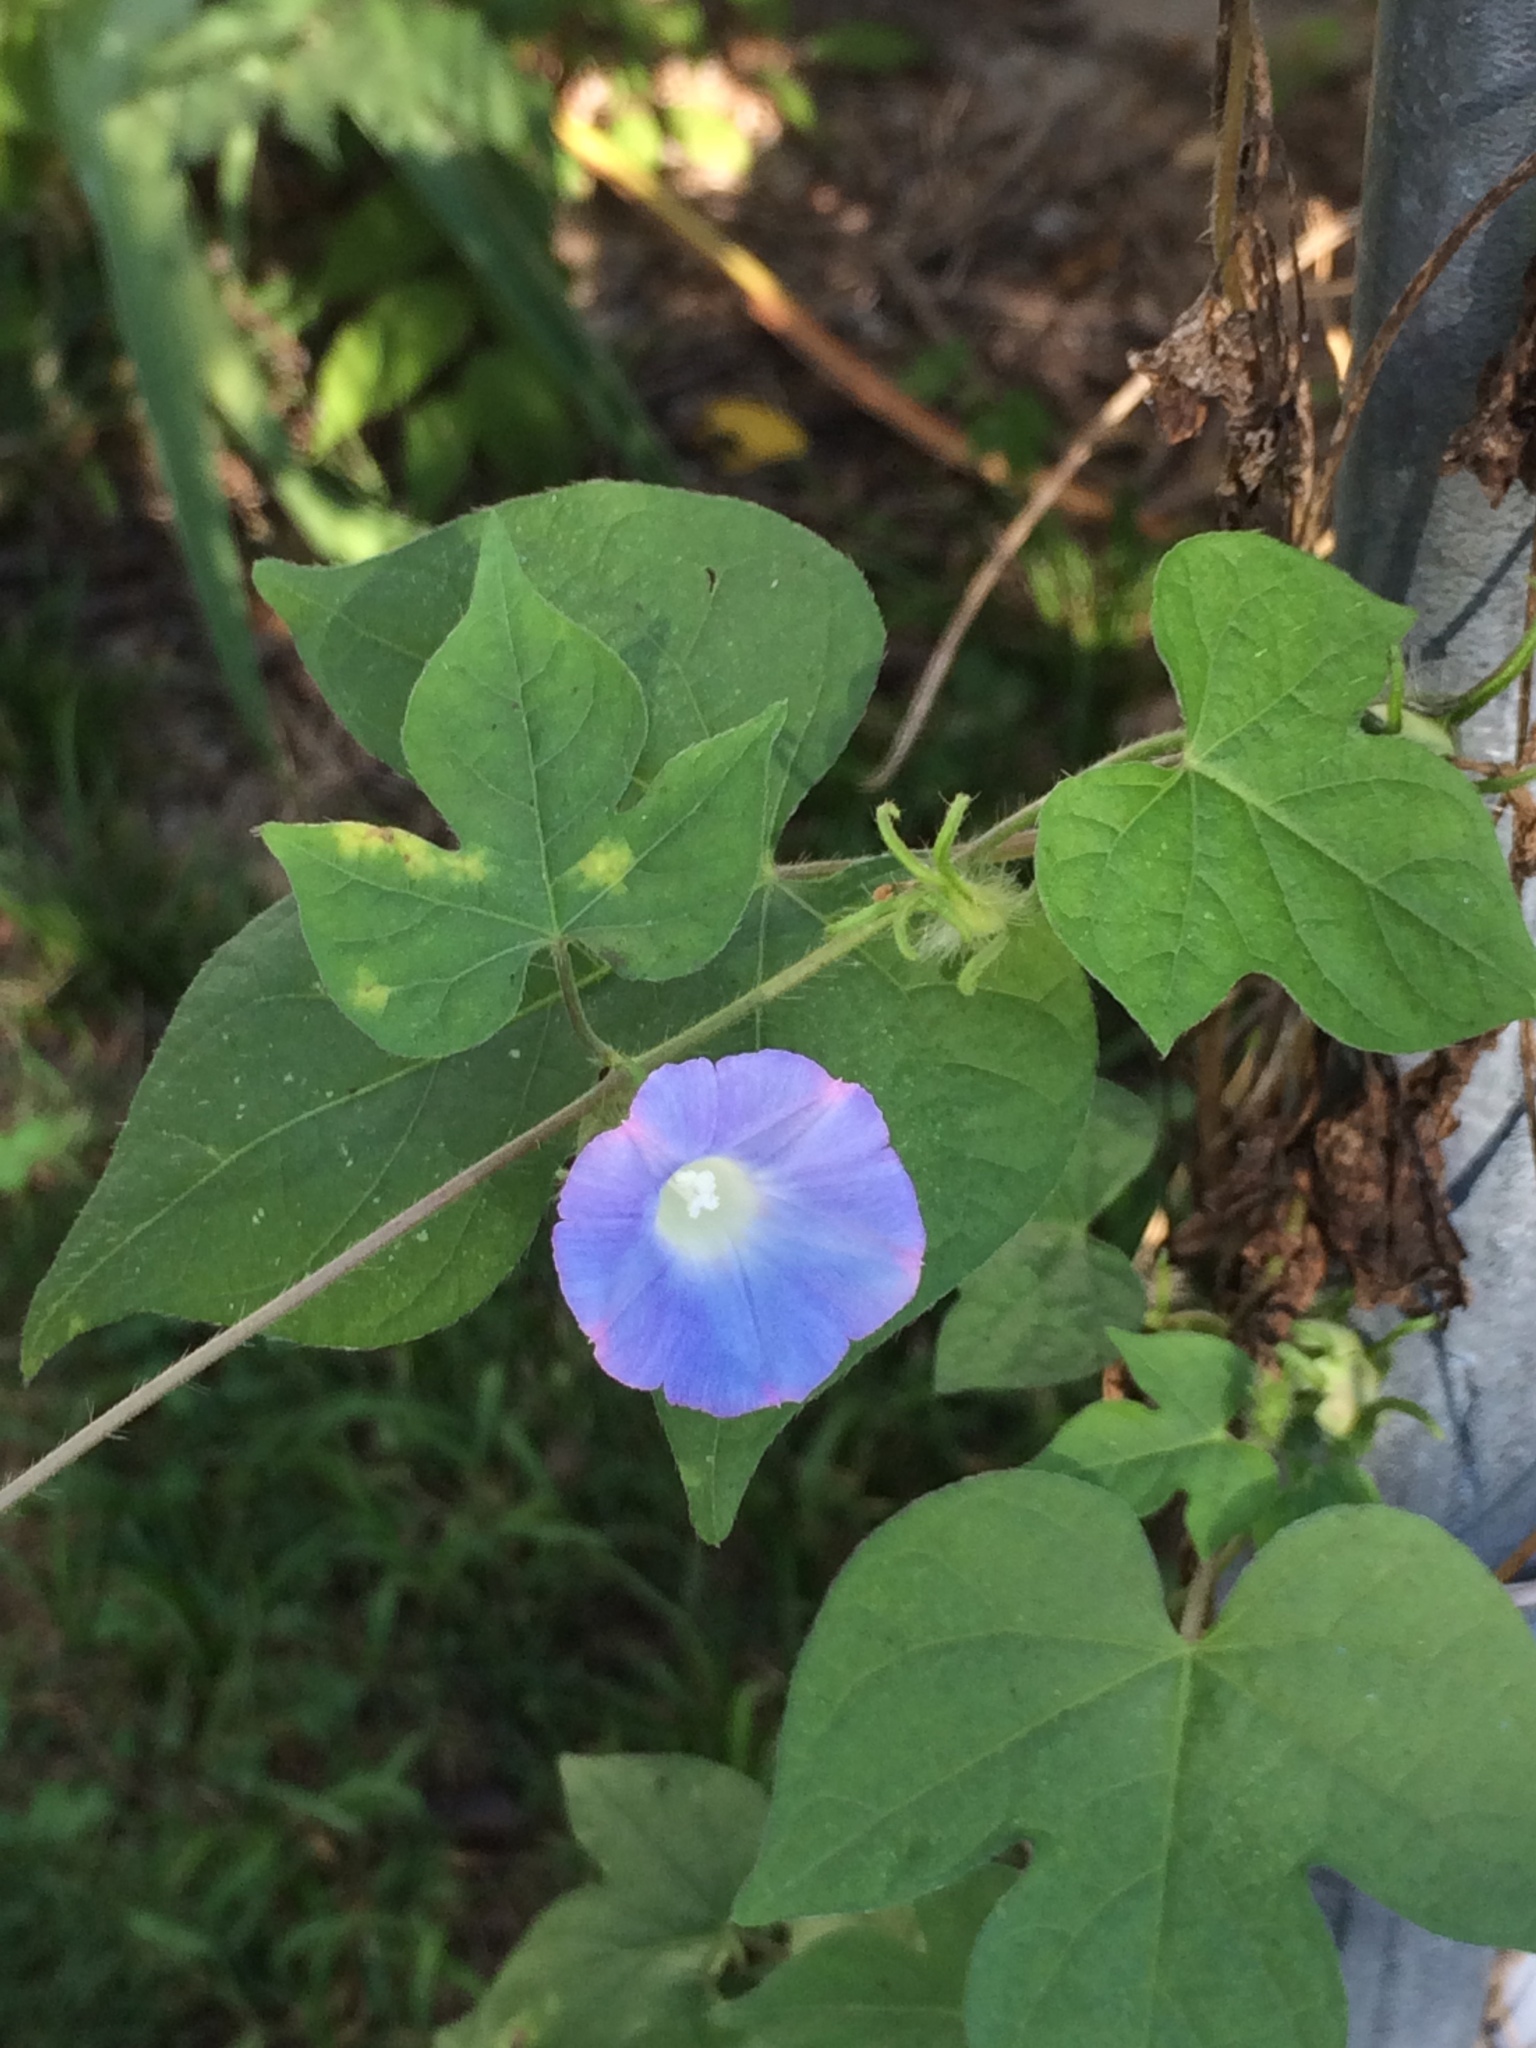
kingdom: Plantae
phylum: Tracheophyta
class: Magnoliopsida
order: Solanales
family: Convolvulaceae
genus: Ipomoea
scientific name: Ipomoea hederacea
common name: Ivy-leaved morning-glory
